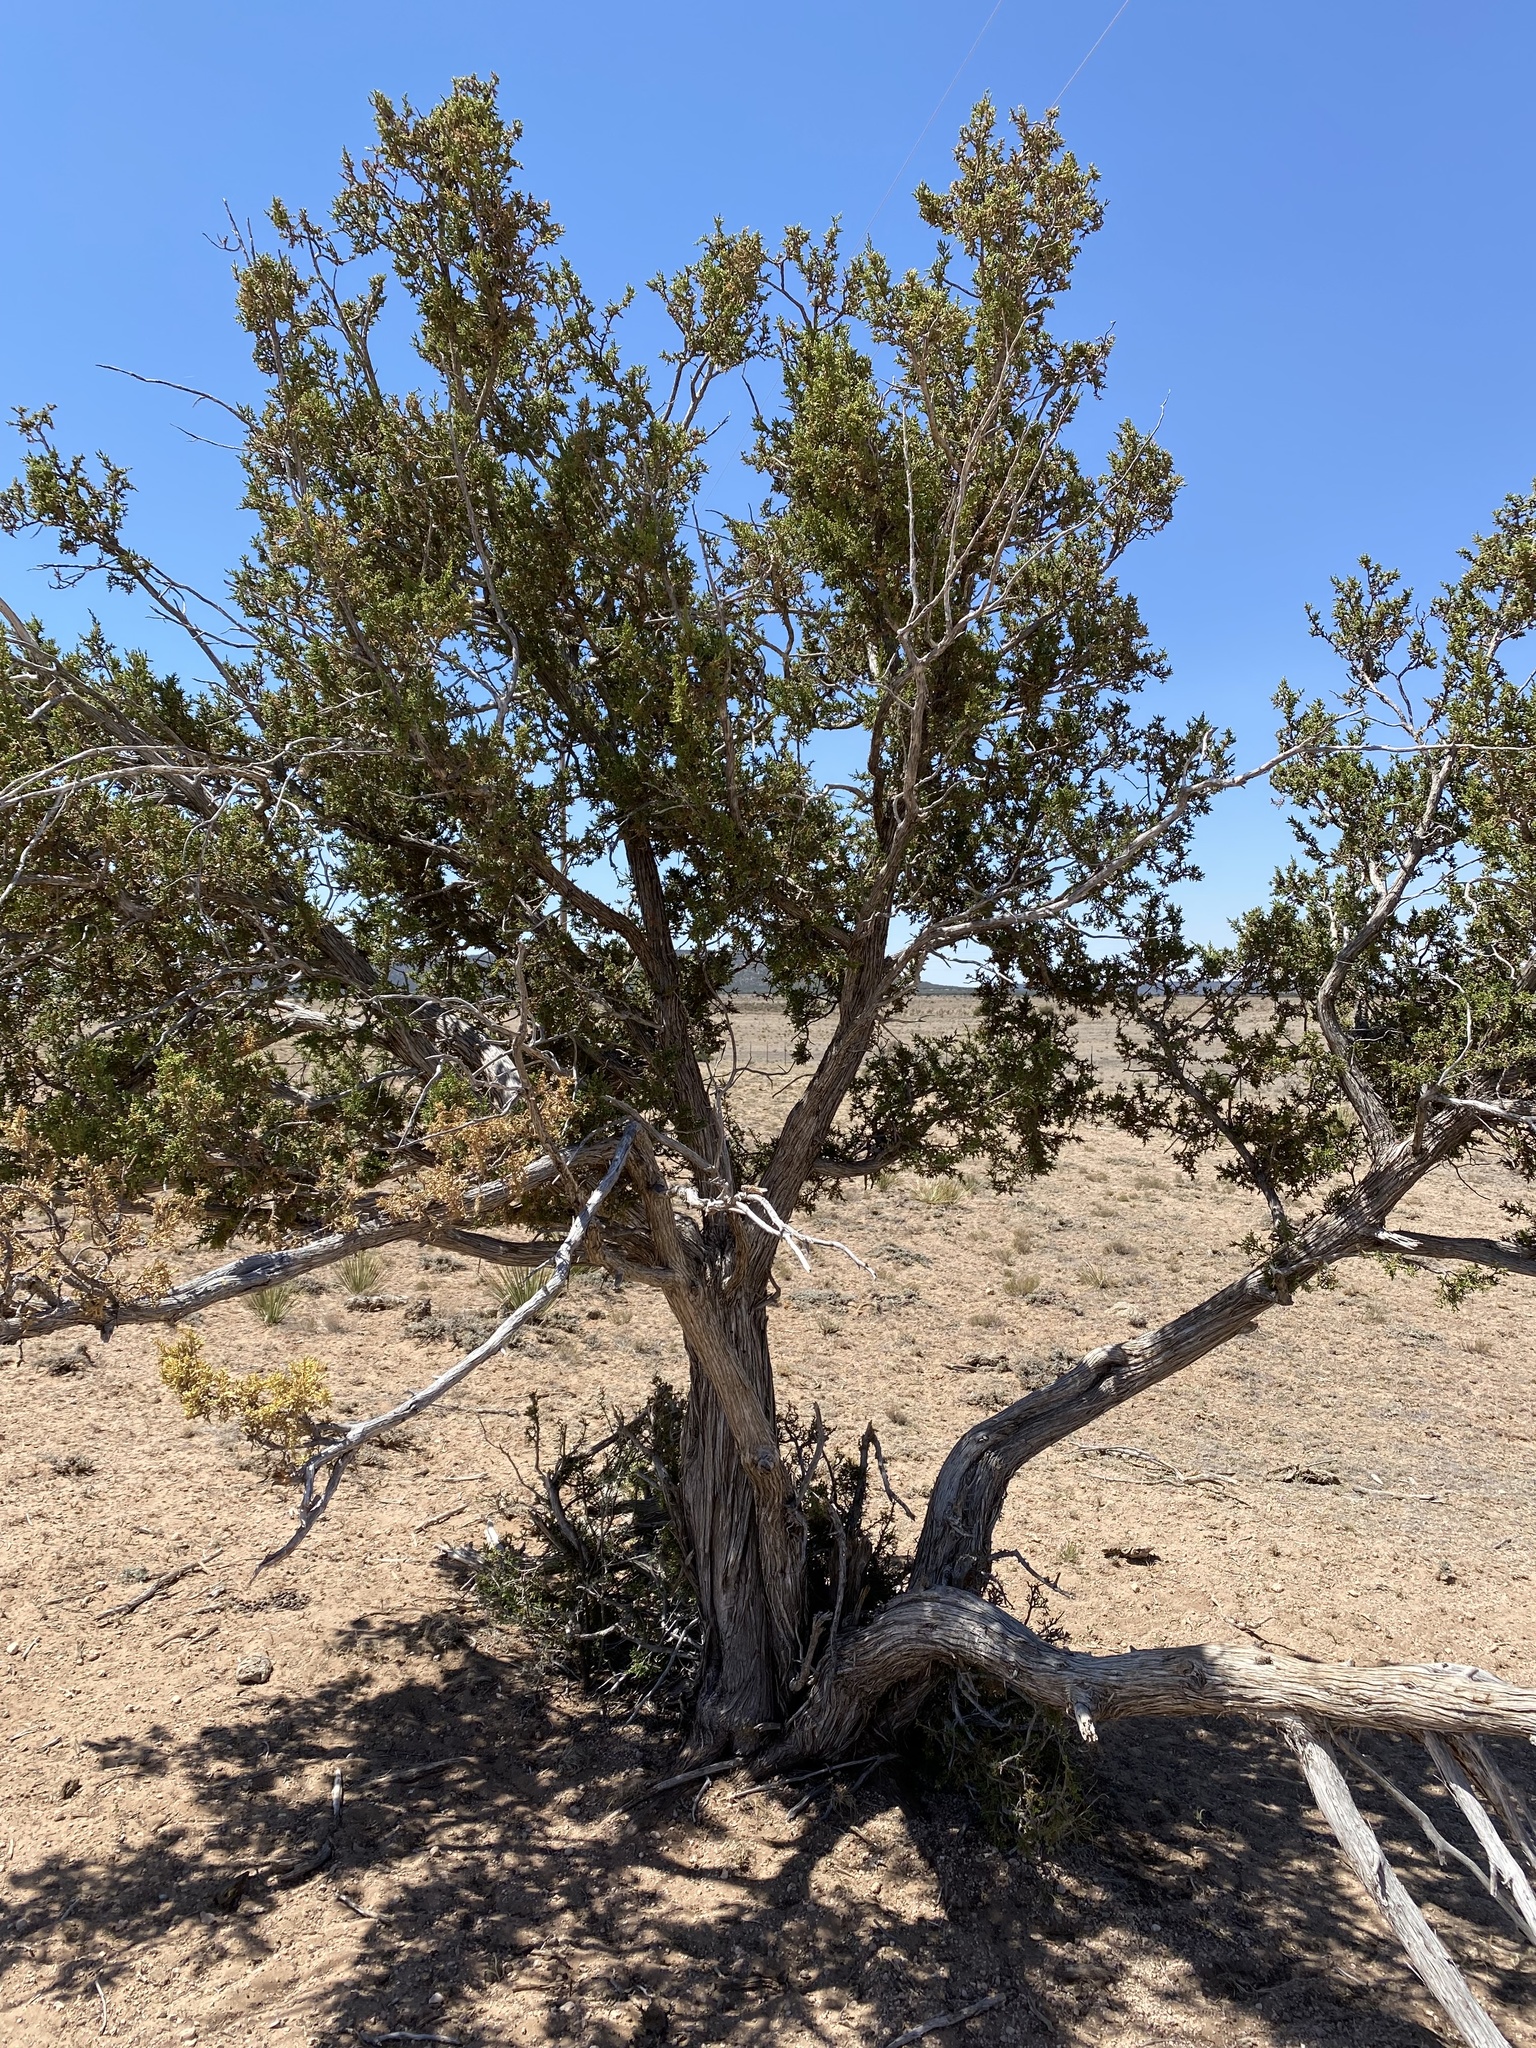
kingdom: Plantae
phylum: Tracheophyta
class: Pinopsida
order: Pinales
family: Cupressaceae
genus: Juniperus
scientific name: Juniperus monosperma
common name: One-seed juniper
